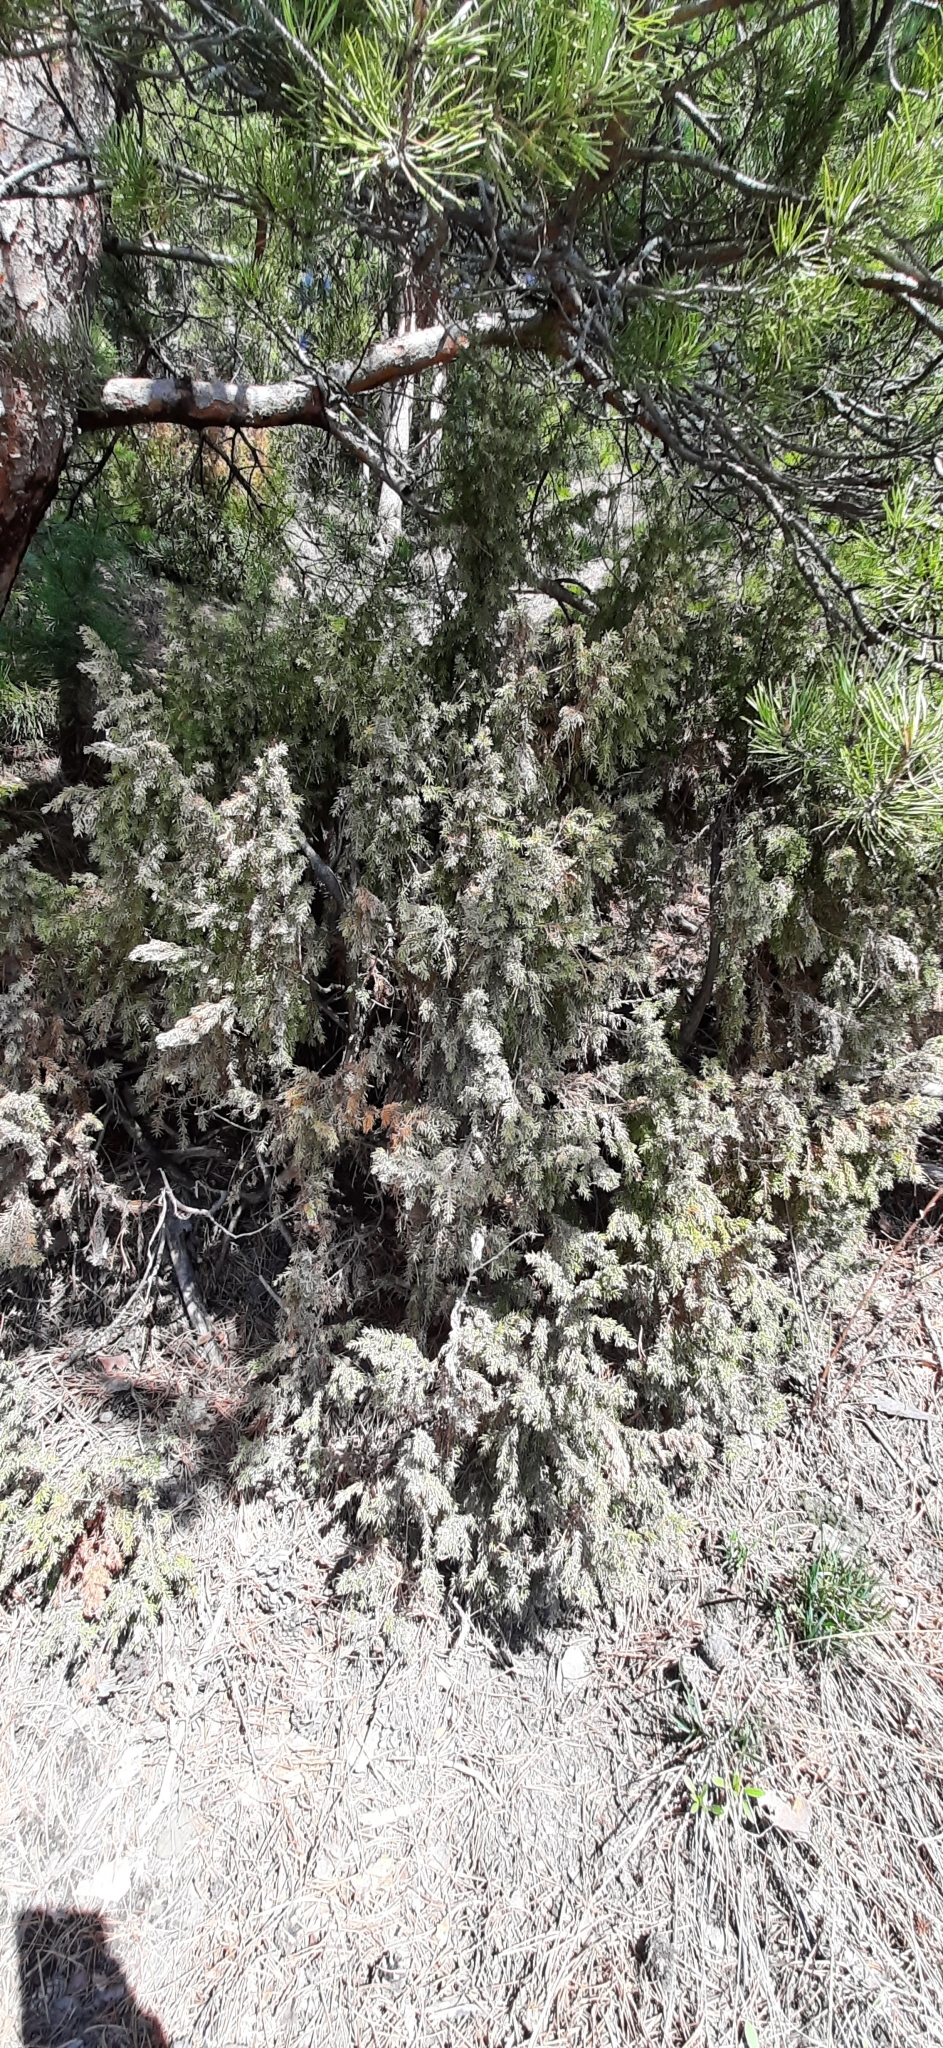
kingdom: Plantae
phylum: Tracheophyta
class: Pinopsida
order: Pinales
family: Cupressaceae
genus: Juniperus
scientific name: Juniperus communis
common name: Common juniper
